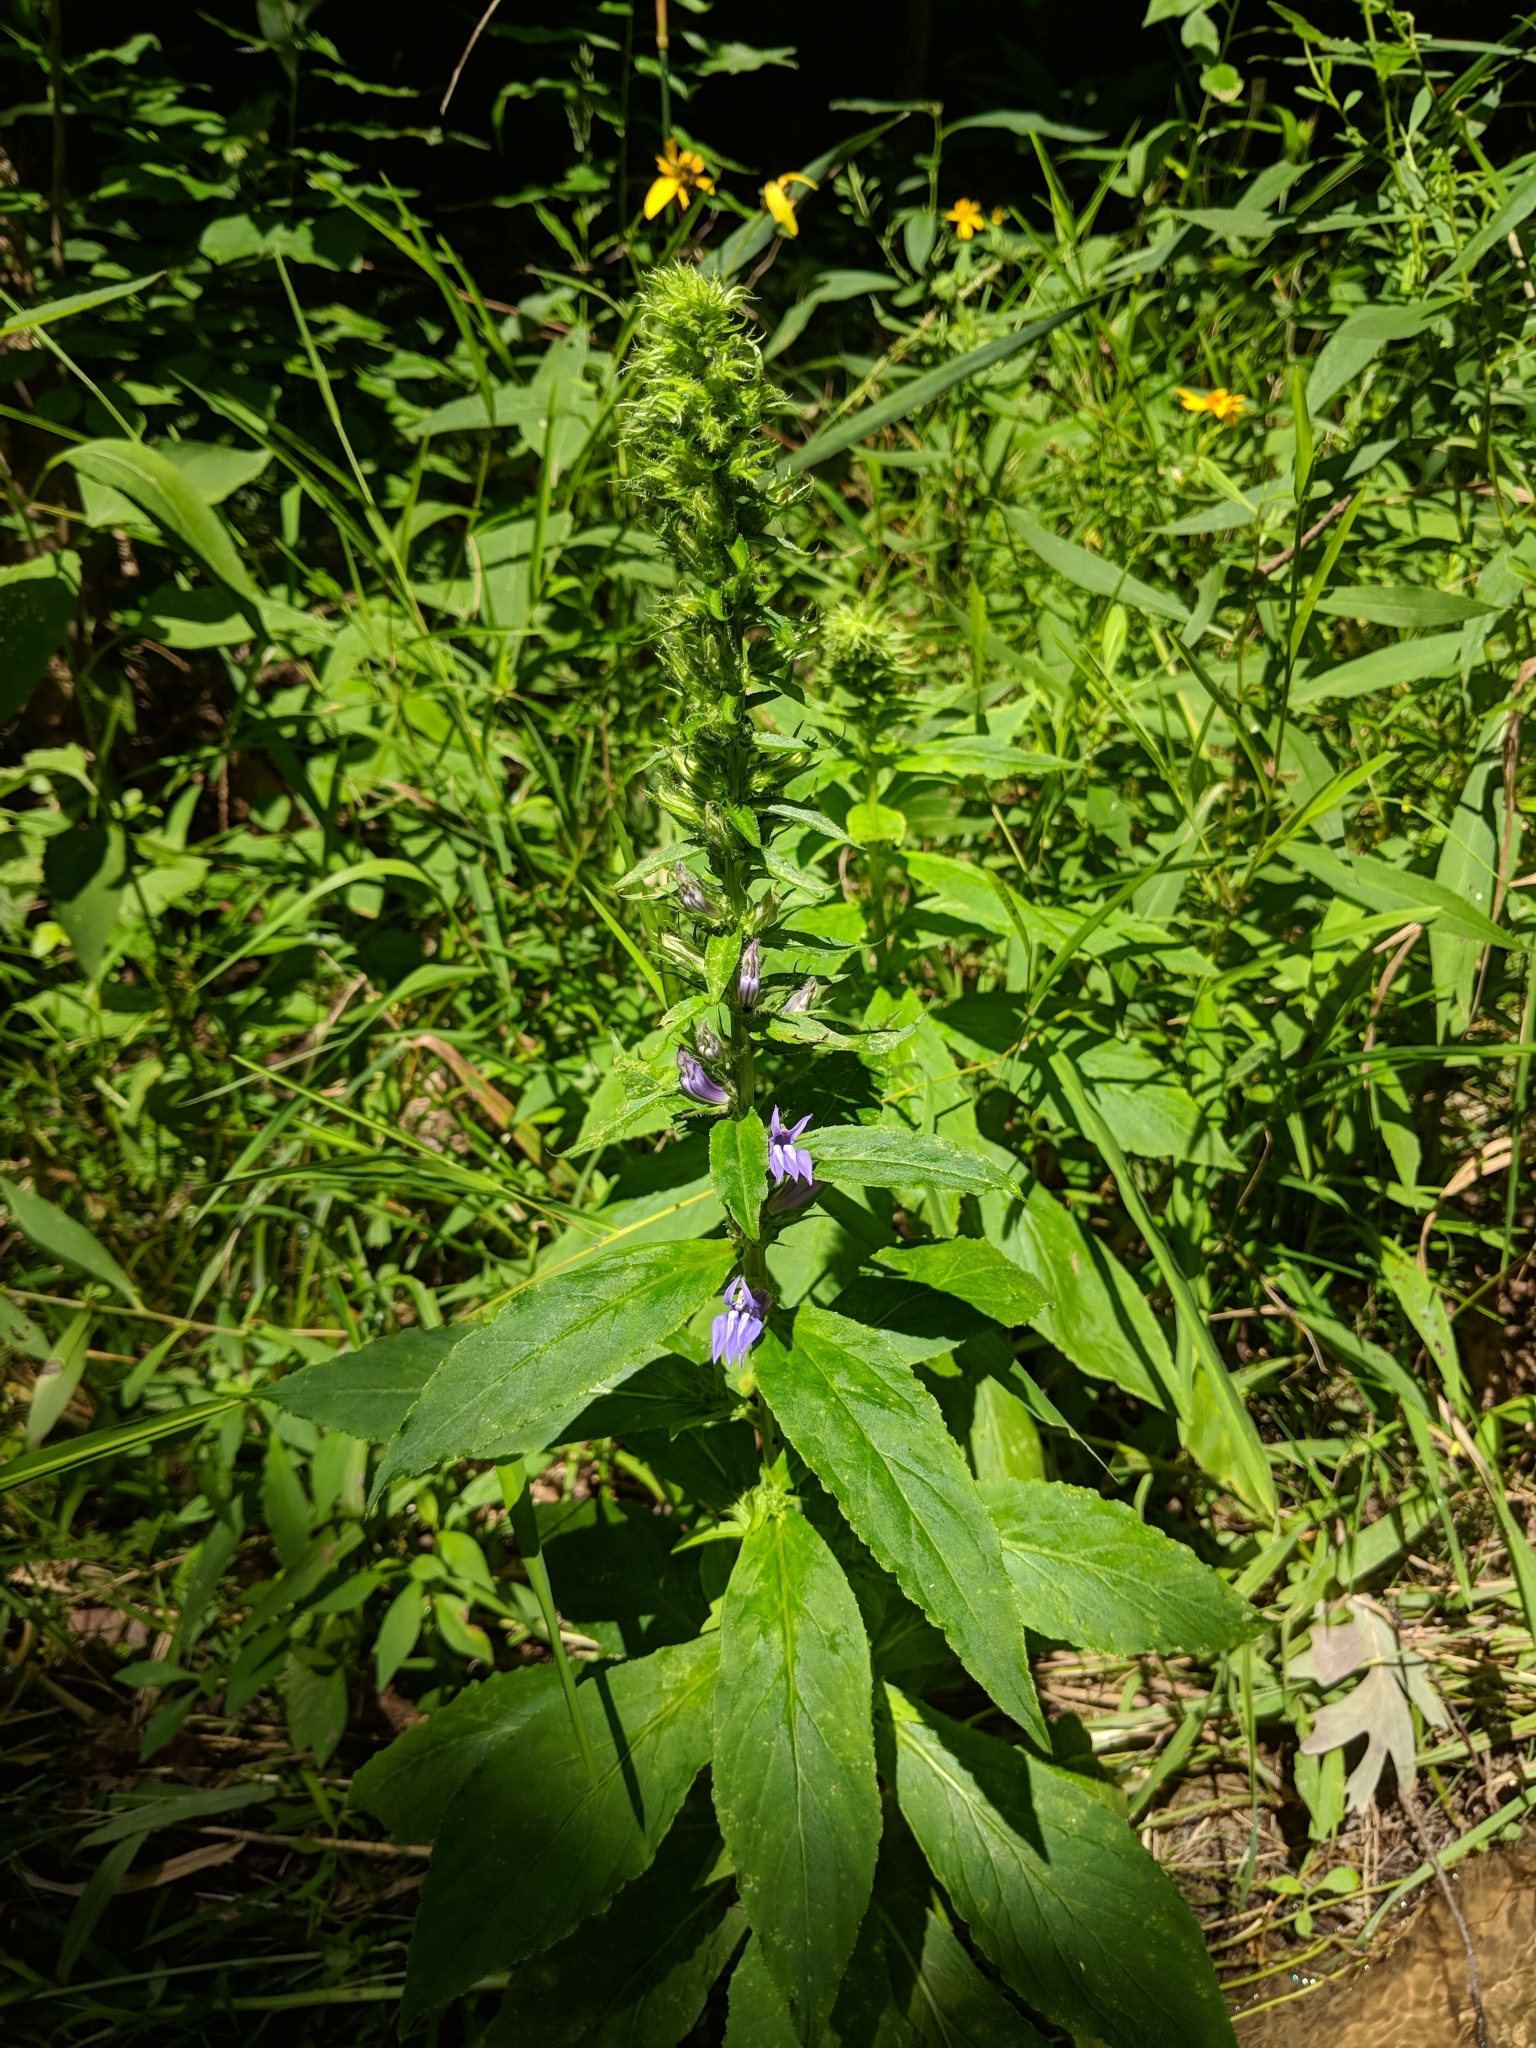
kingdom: Plantae
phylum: Tracheophyta
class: Magnoliopsida
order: Asterales
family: Campanulaceae
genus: Lobelia
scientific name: Lobelia siphilitica
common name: Great lobelia
